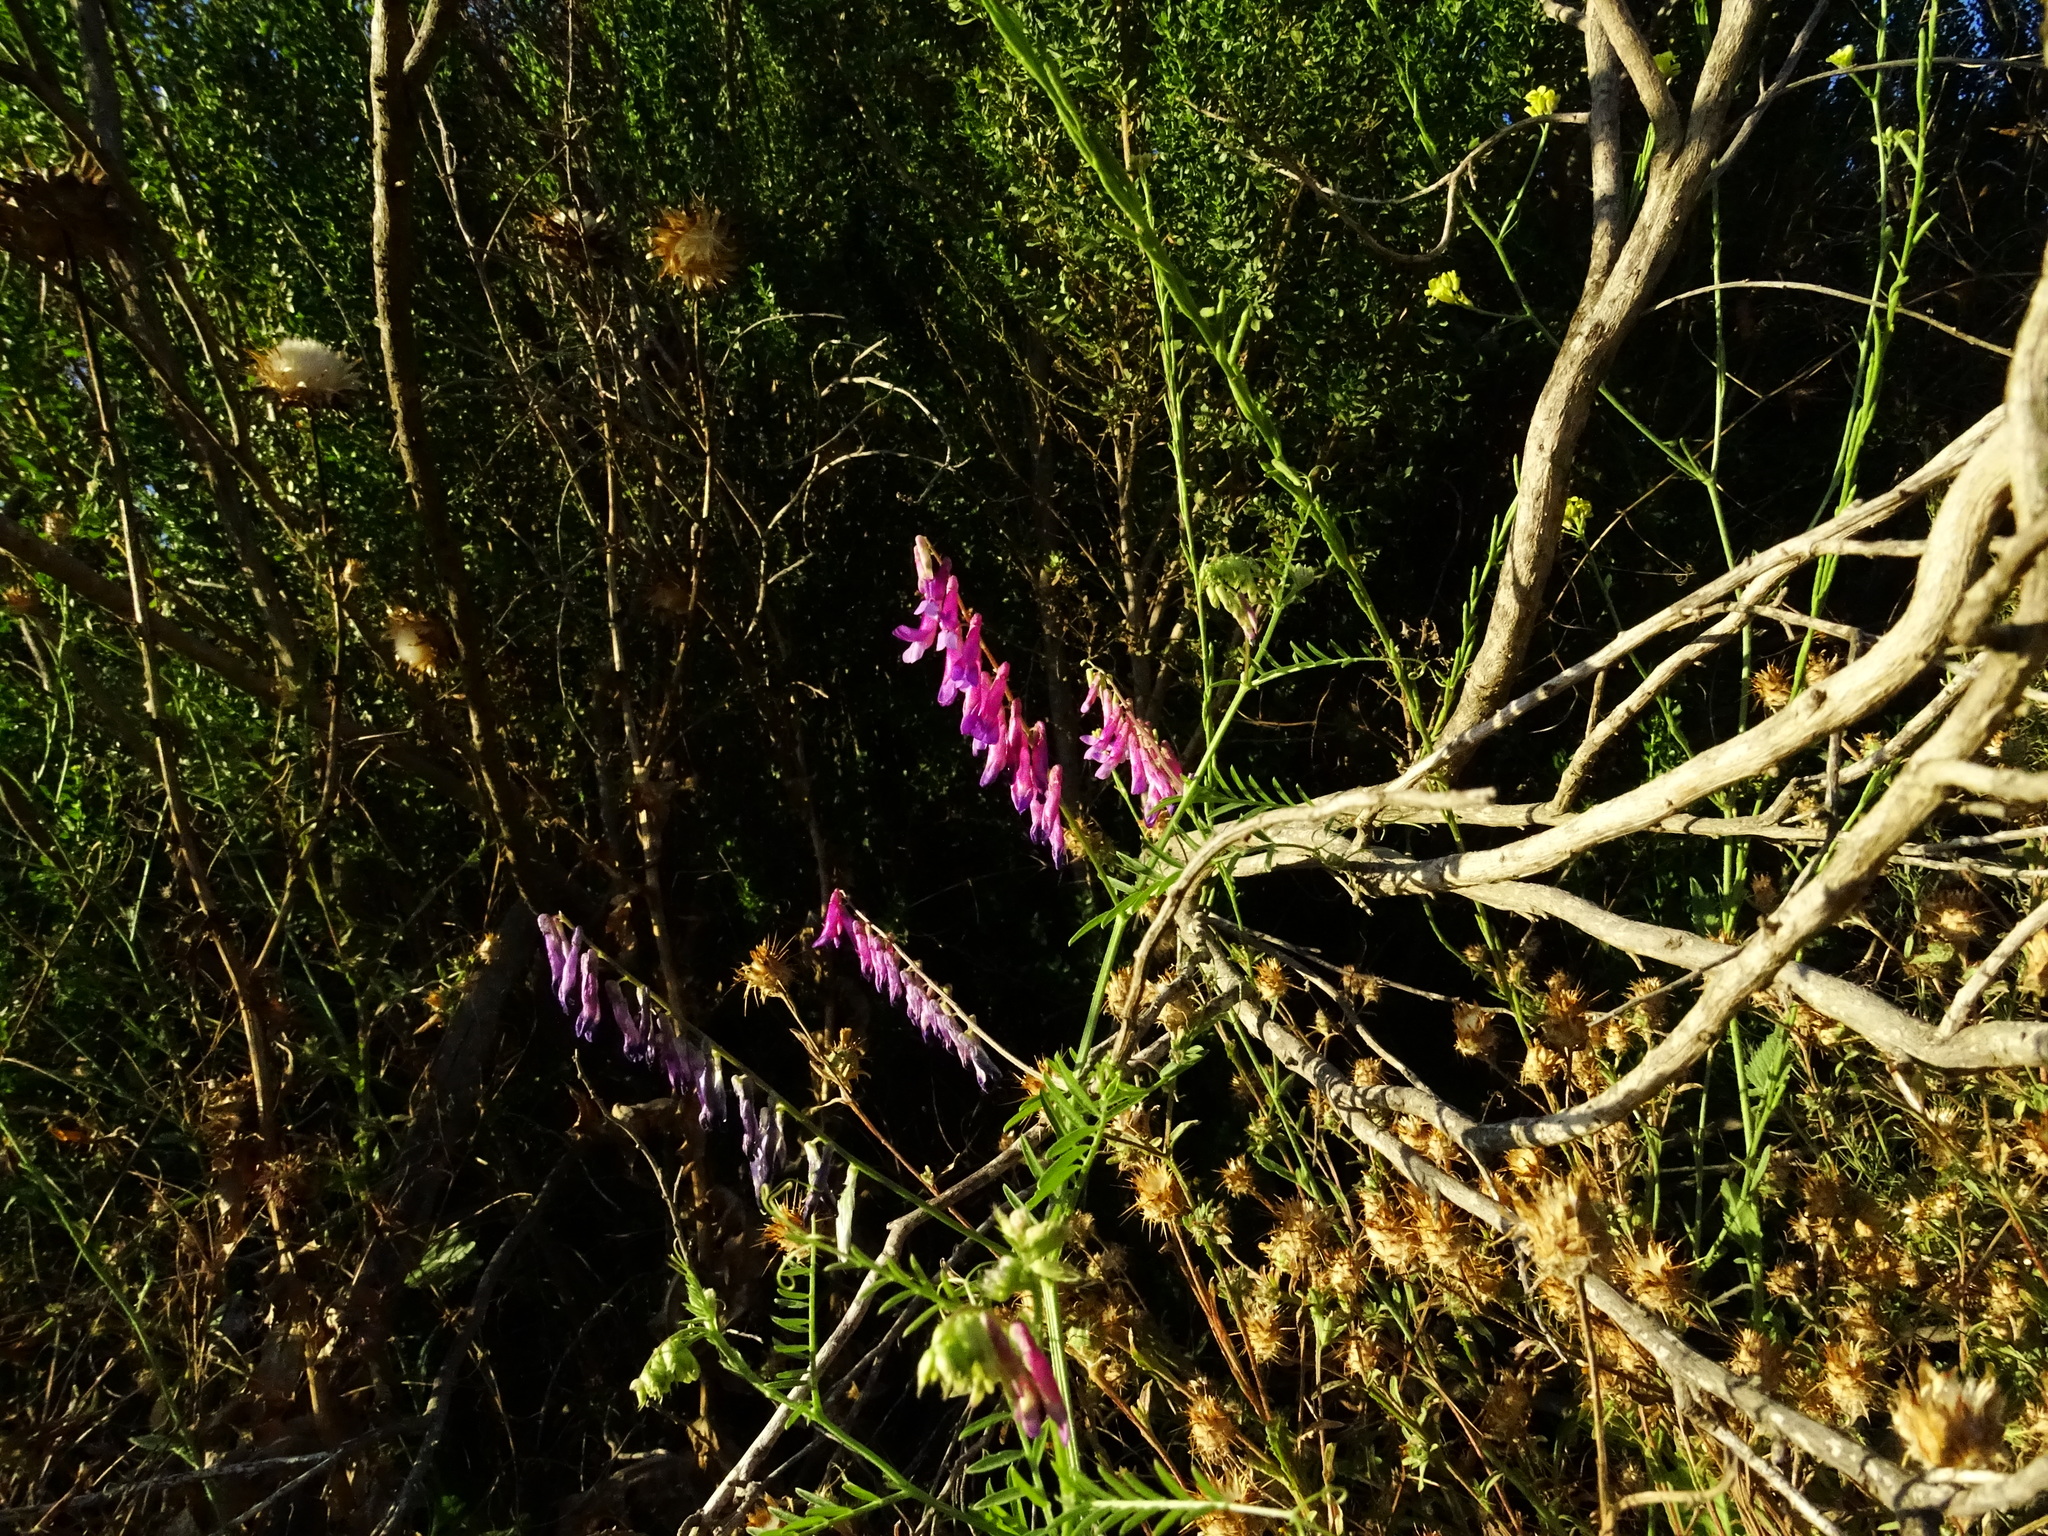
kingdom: Plantae
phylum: Tracheophyta
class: Magnoliopsida
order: Fabales
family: Fabaceae
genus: Vicia
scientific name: Vicia villosa
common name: Fodder vetch
